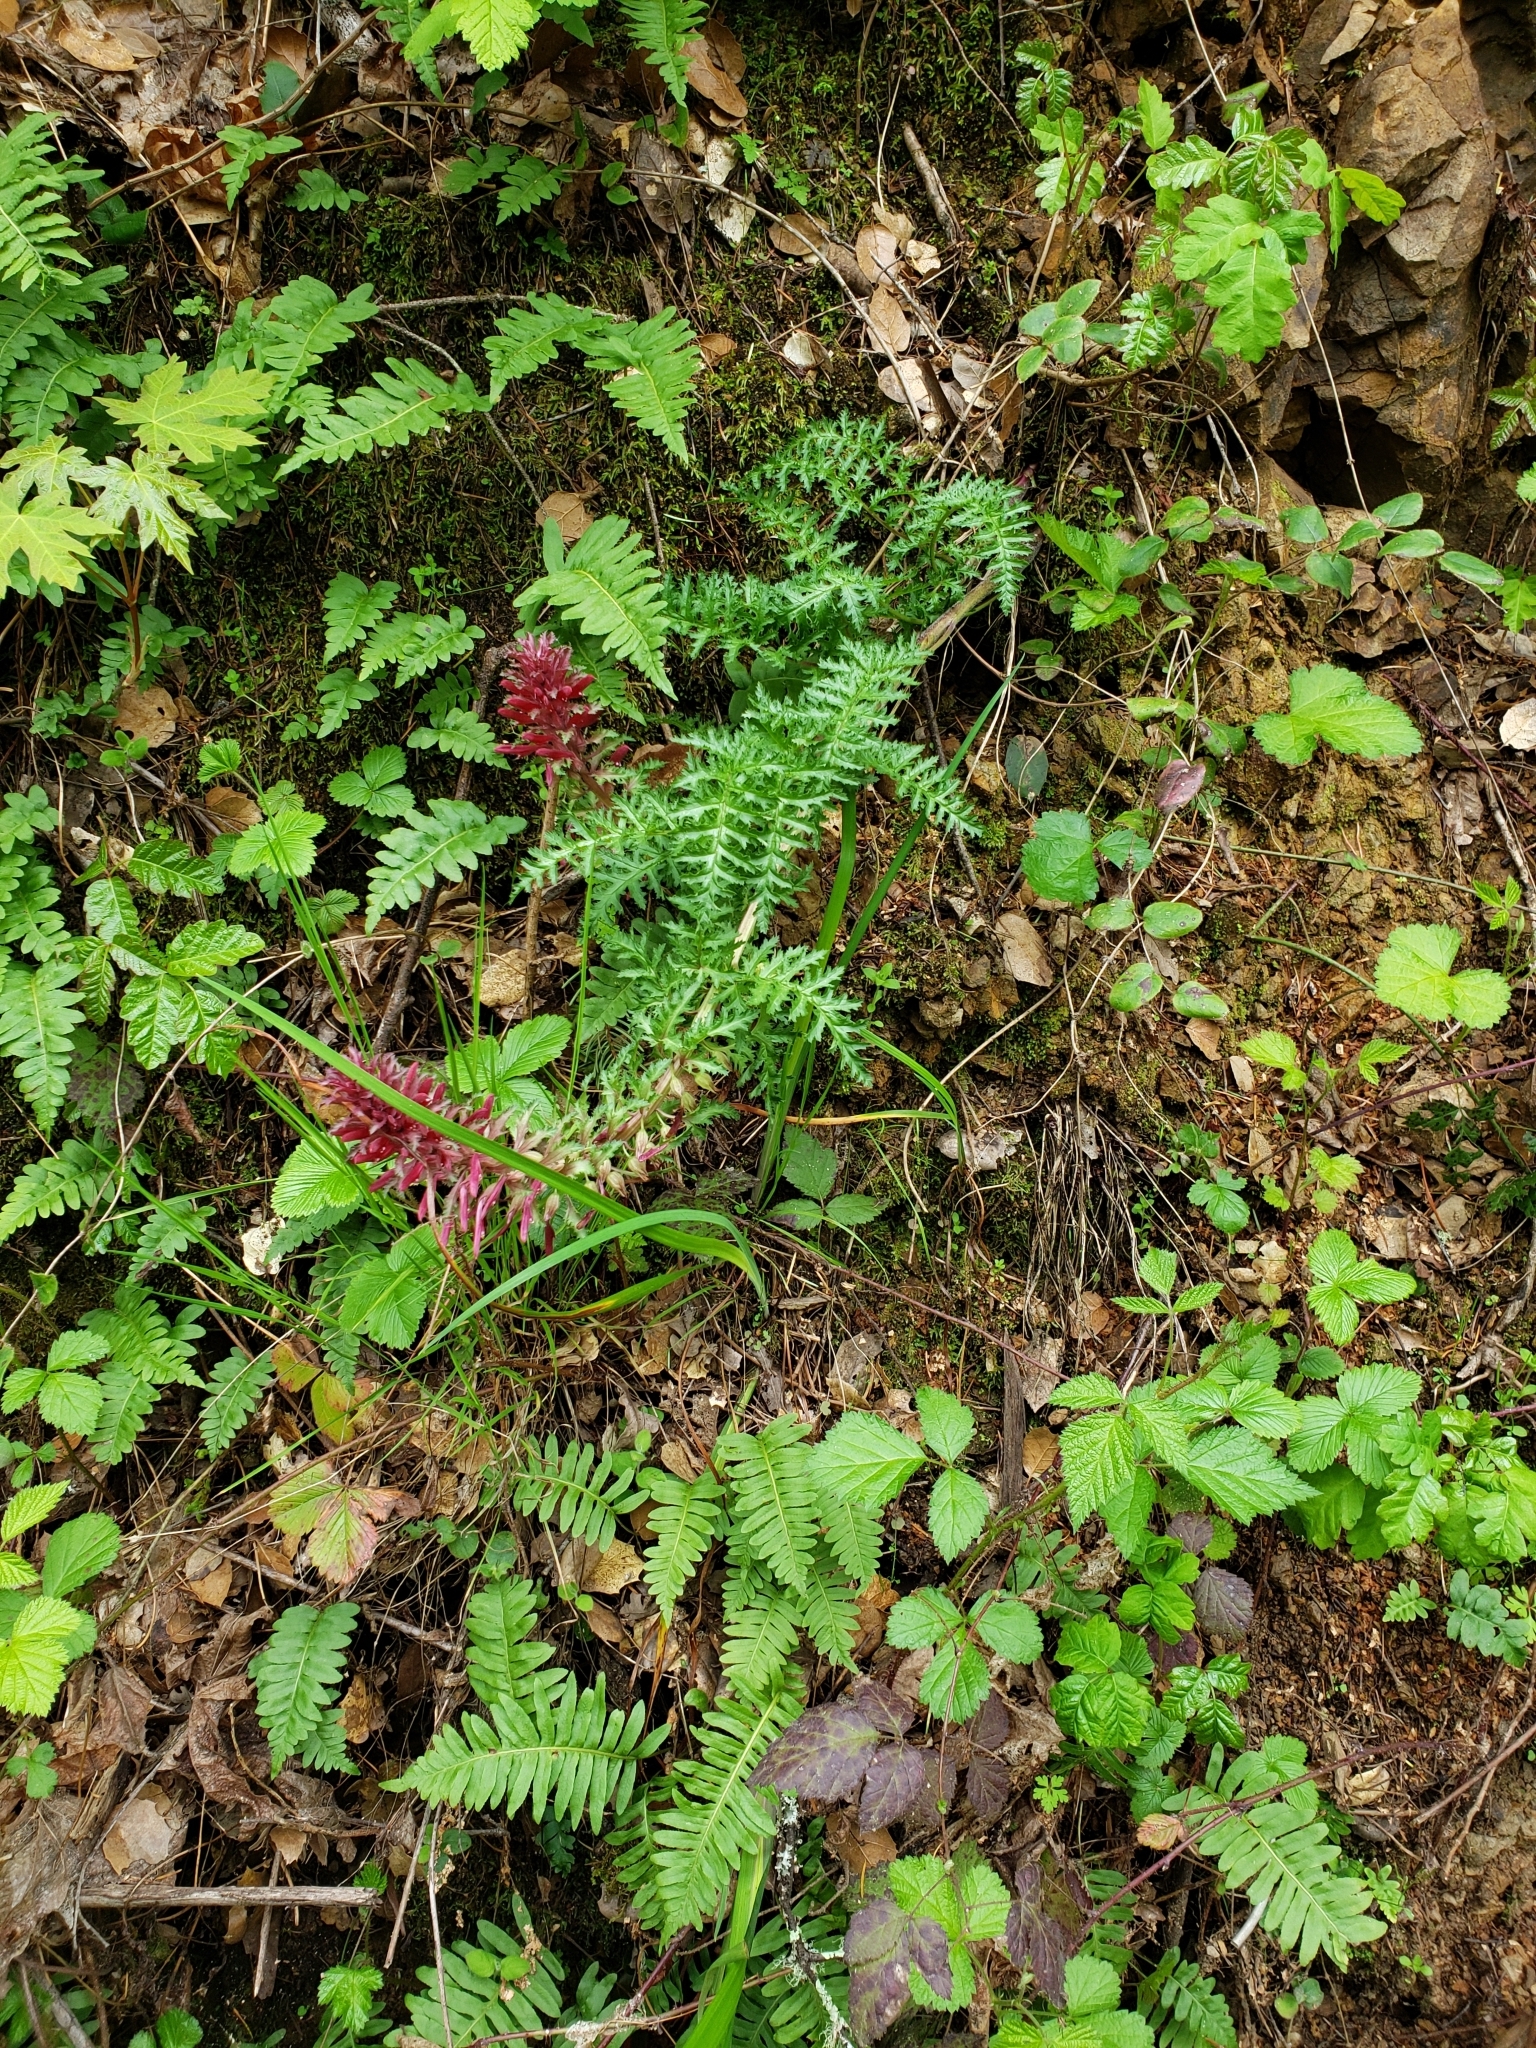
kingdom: Plantae
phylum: Tracheophyta
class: Magnoliopsida
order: Lamiales
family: Orobanchaceae
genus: Pedicularis
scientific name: Pedicularis densiflora
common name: Indian warrior
